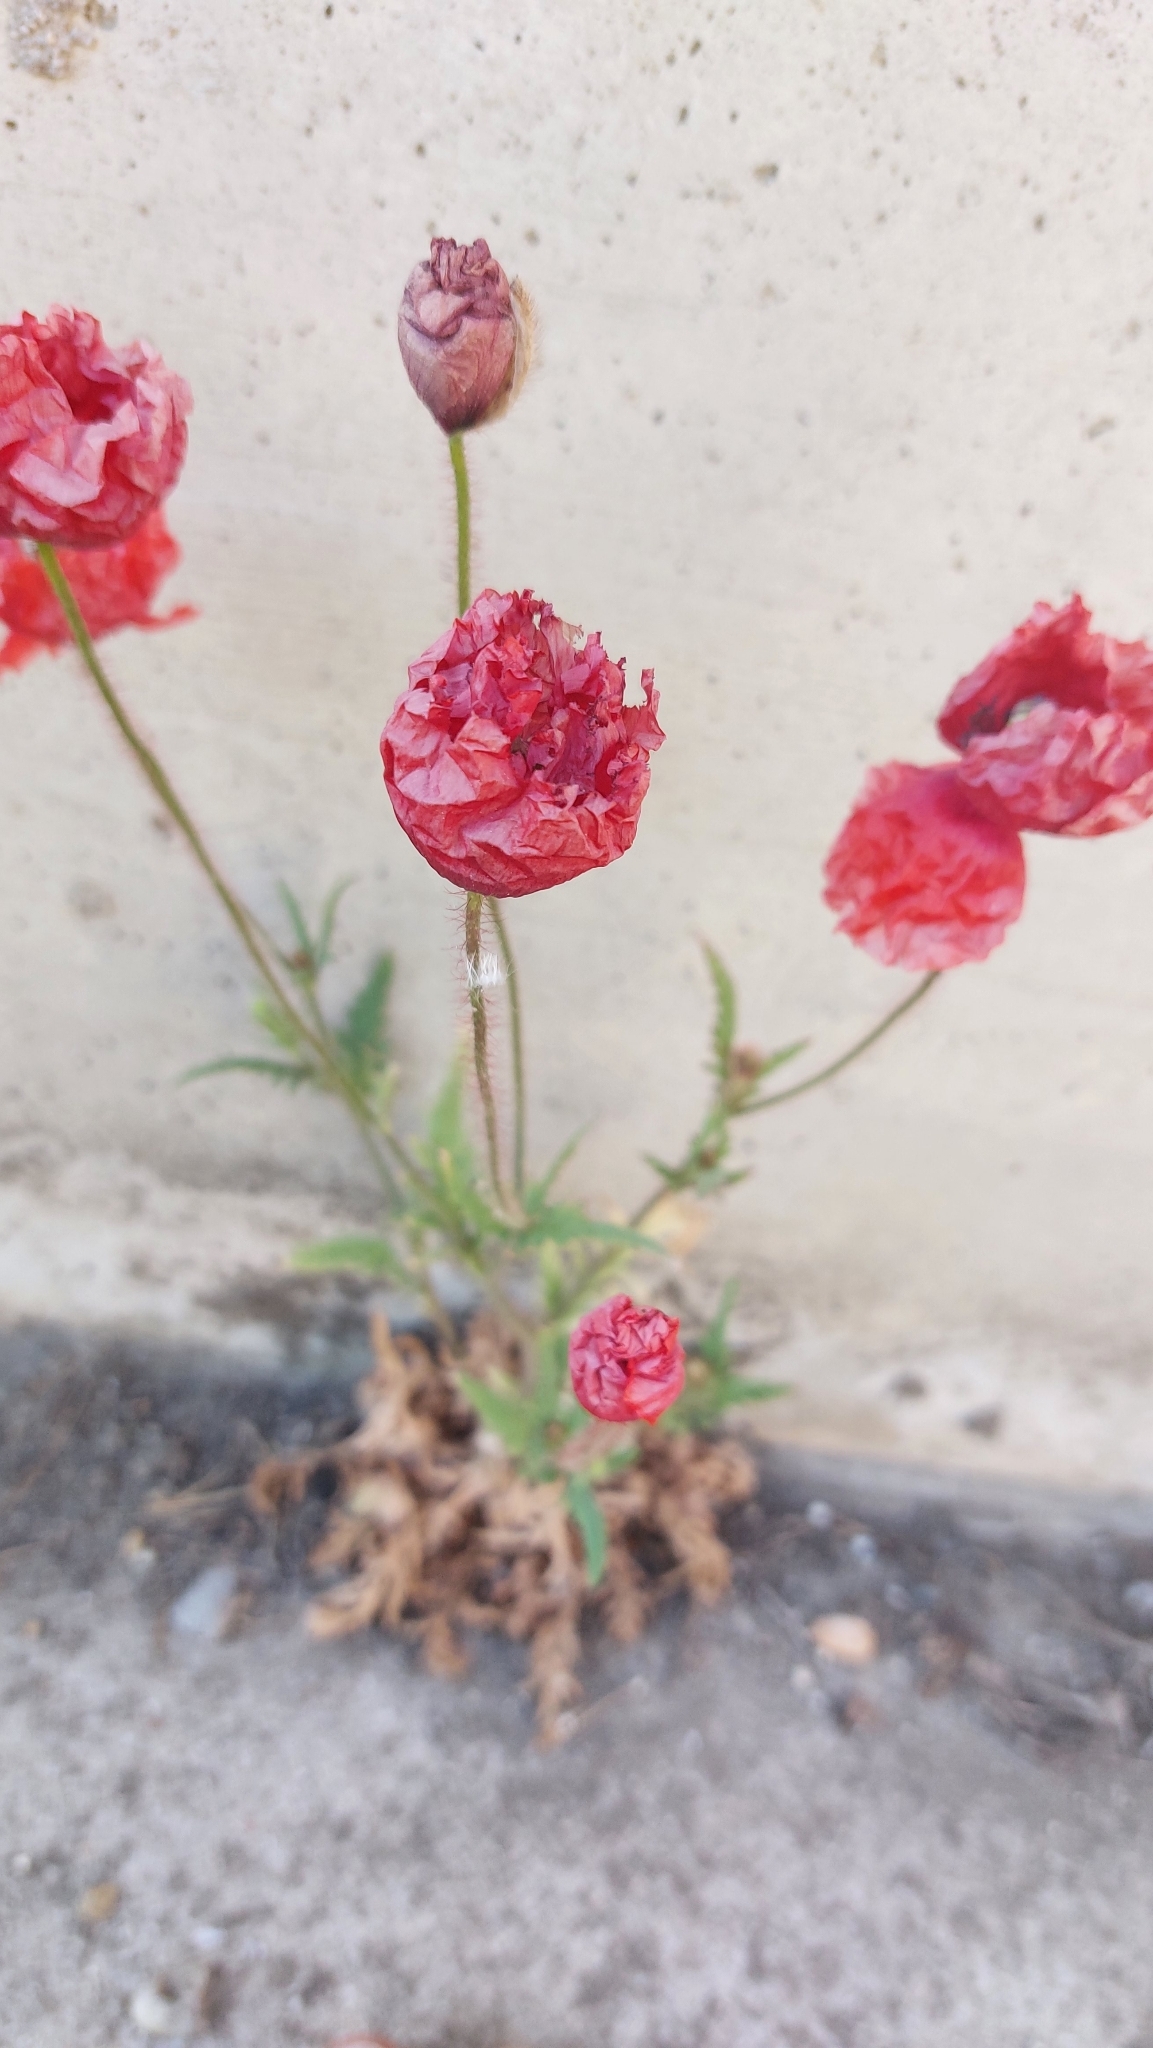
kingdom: Plantae
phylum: Tracheophyta
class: Magnoliopsida
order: Ranunculales
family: Papaveraceae
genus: Papaver
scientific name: Papaver rhoeas
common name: Corn poppy
